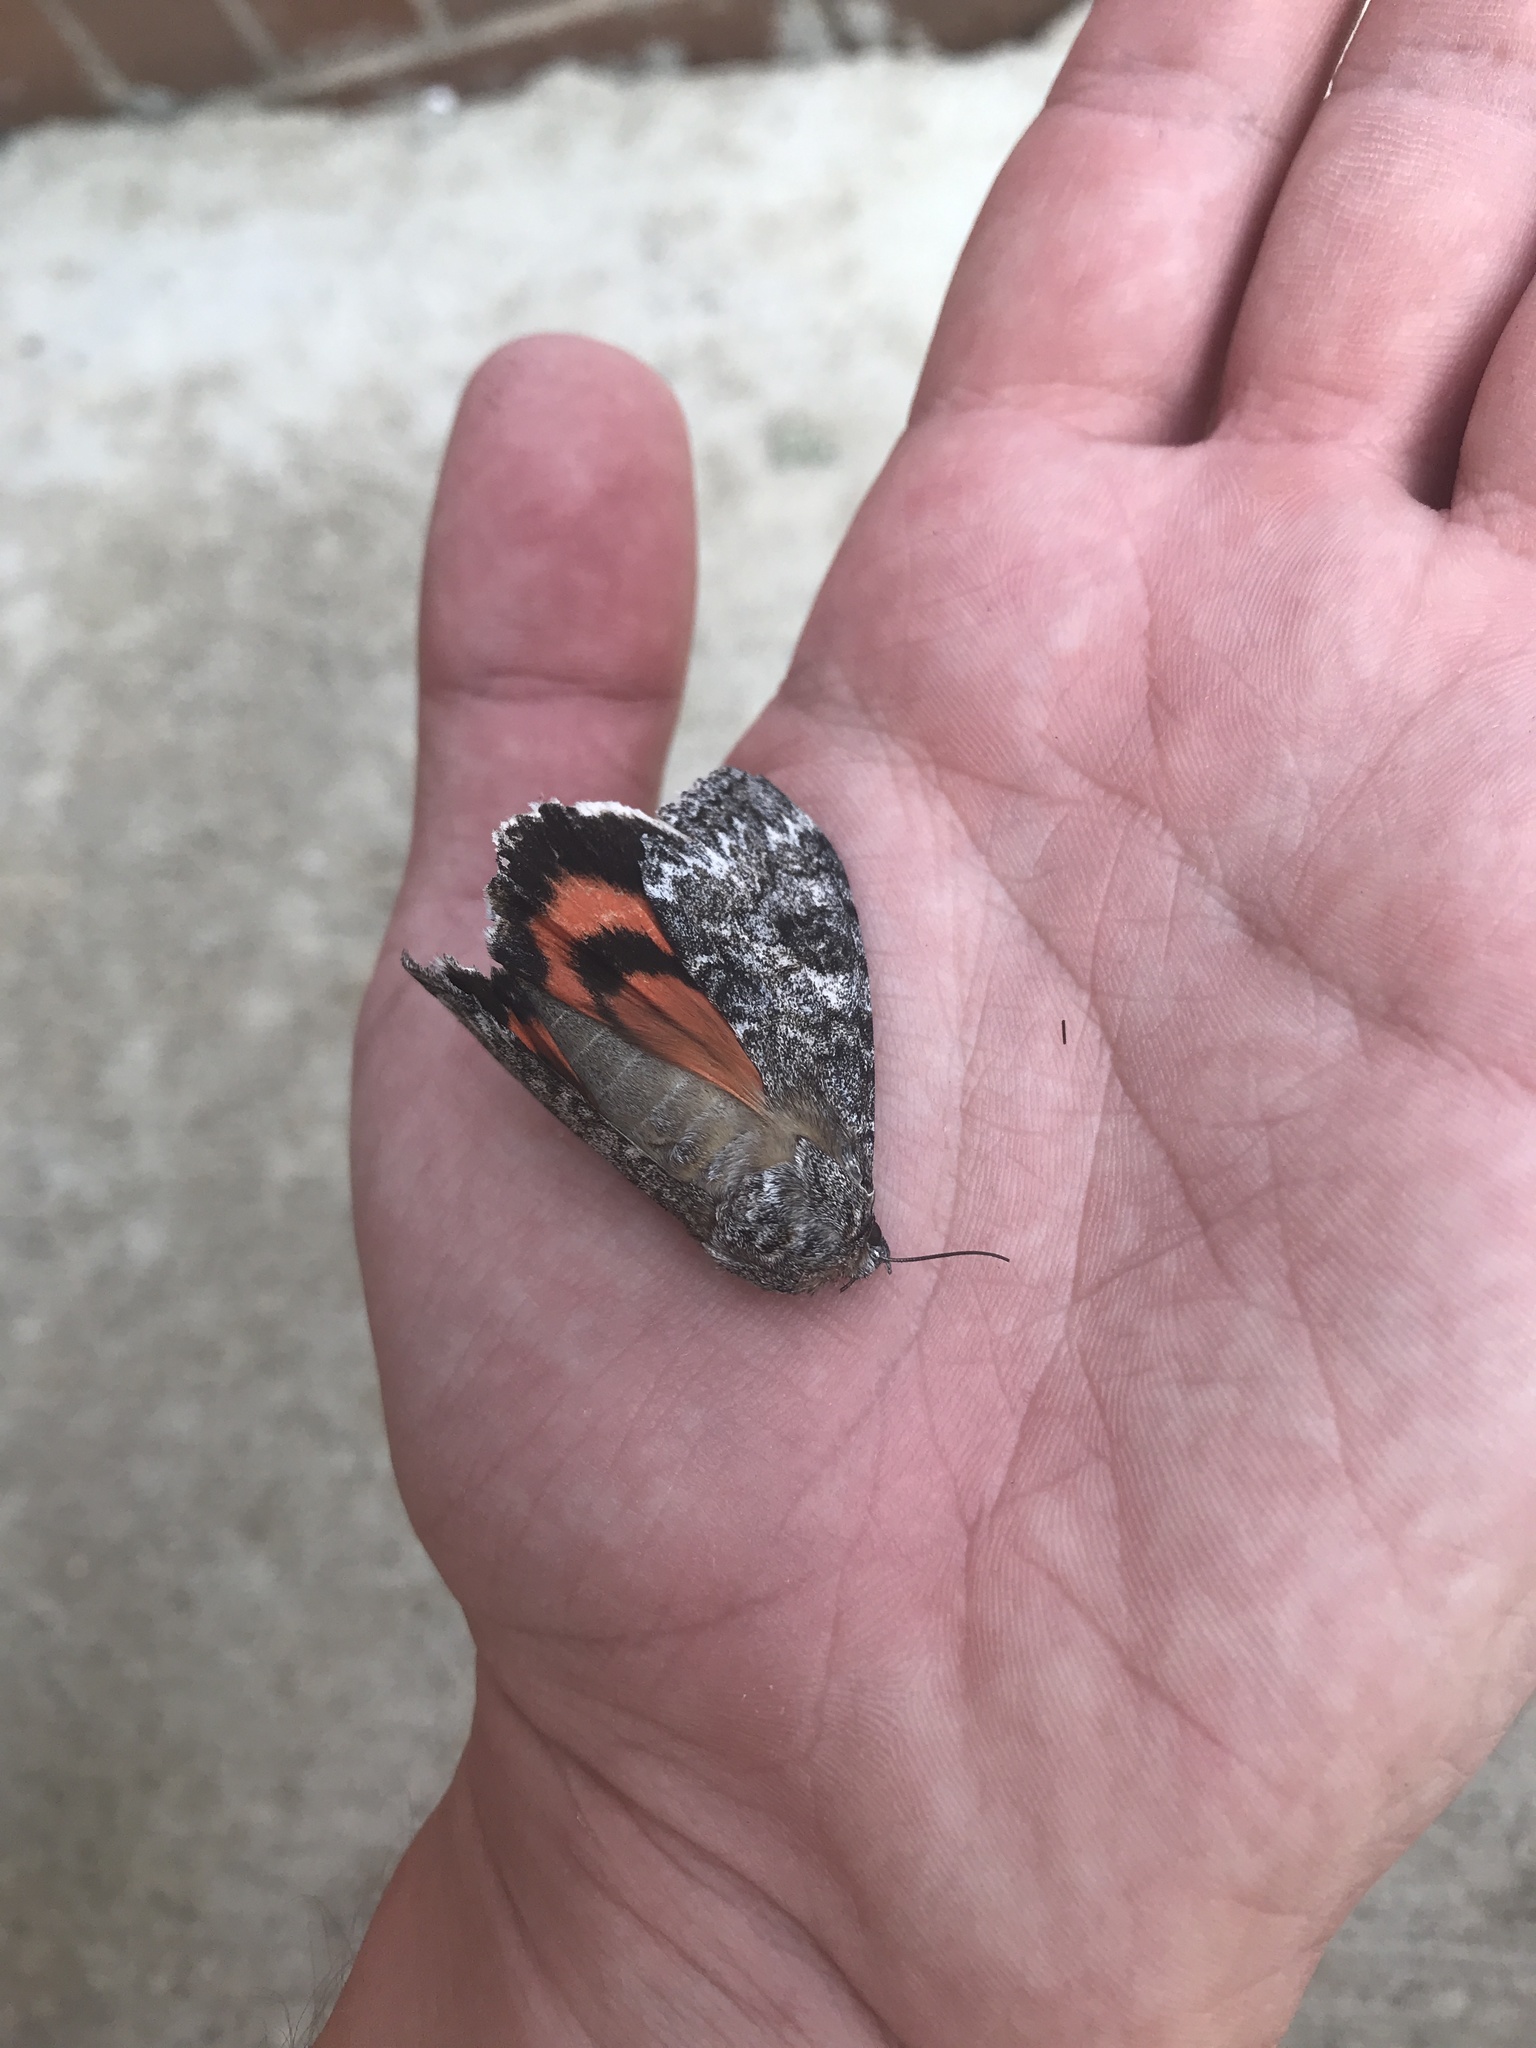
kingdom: Animalia
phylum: Arthropoda
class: Insecta
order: Lepidoptera
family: Erebidae
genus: Catocala
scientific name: Catocala unijuga
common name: Once-married underwing
